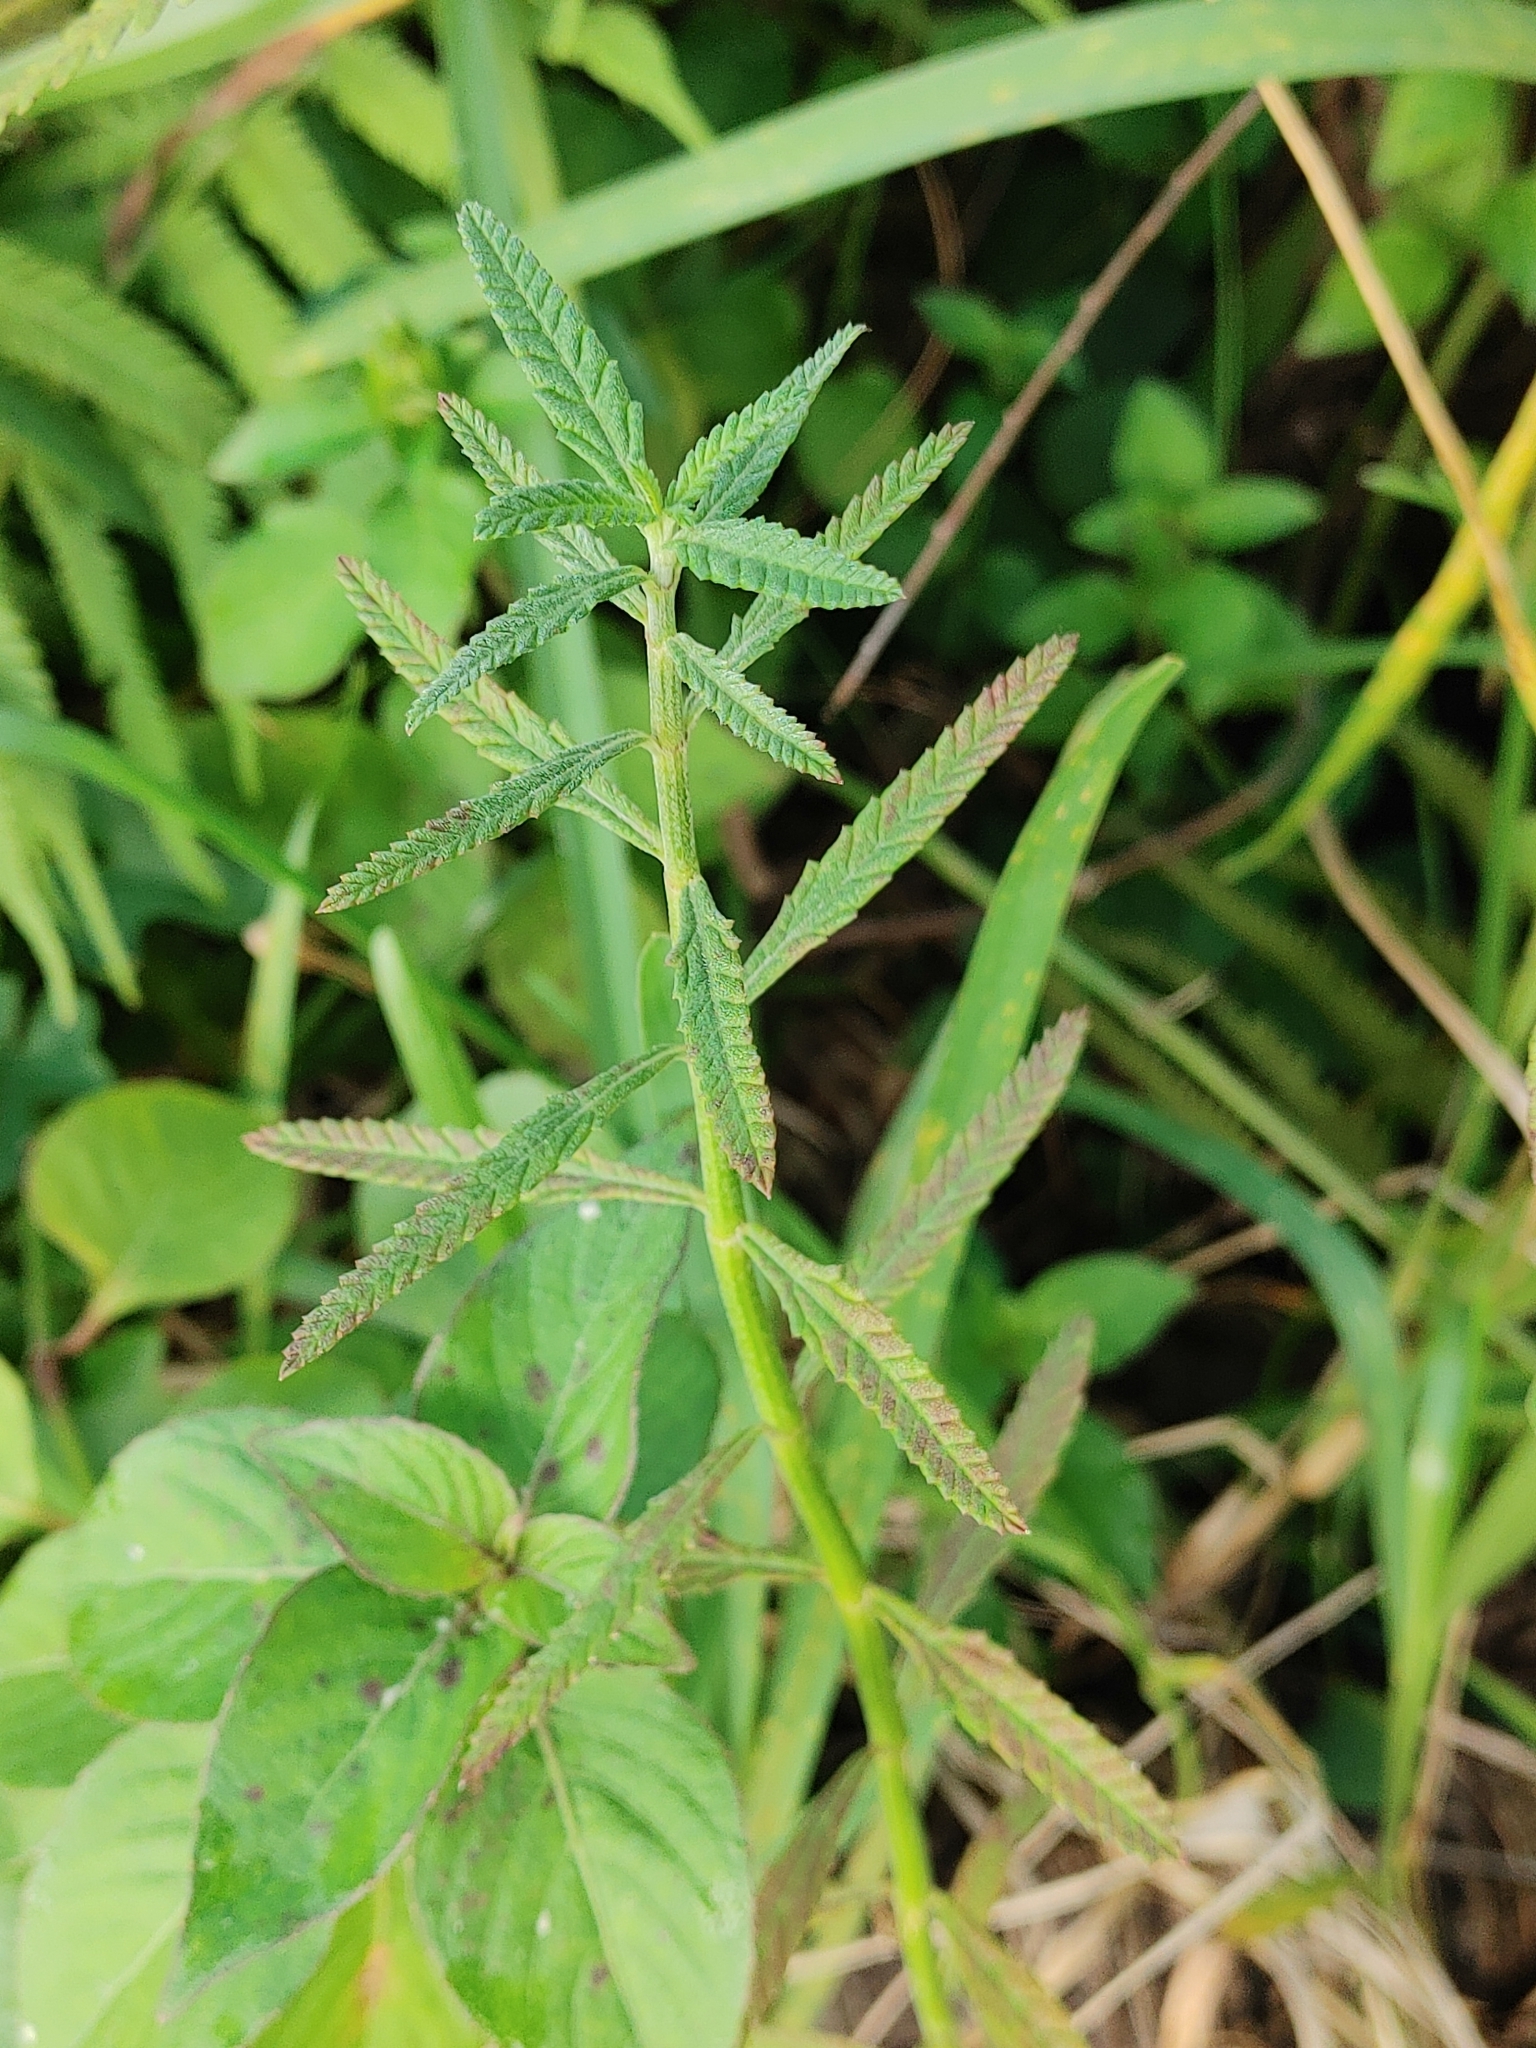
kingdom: Plantae
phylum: Tracheophyta
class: Magnoliopsida
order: Lamiales
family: Verbenaceae
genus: Lippia
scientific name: Lippia stoechadifolia
